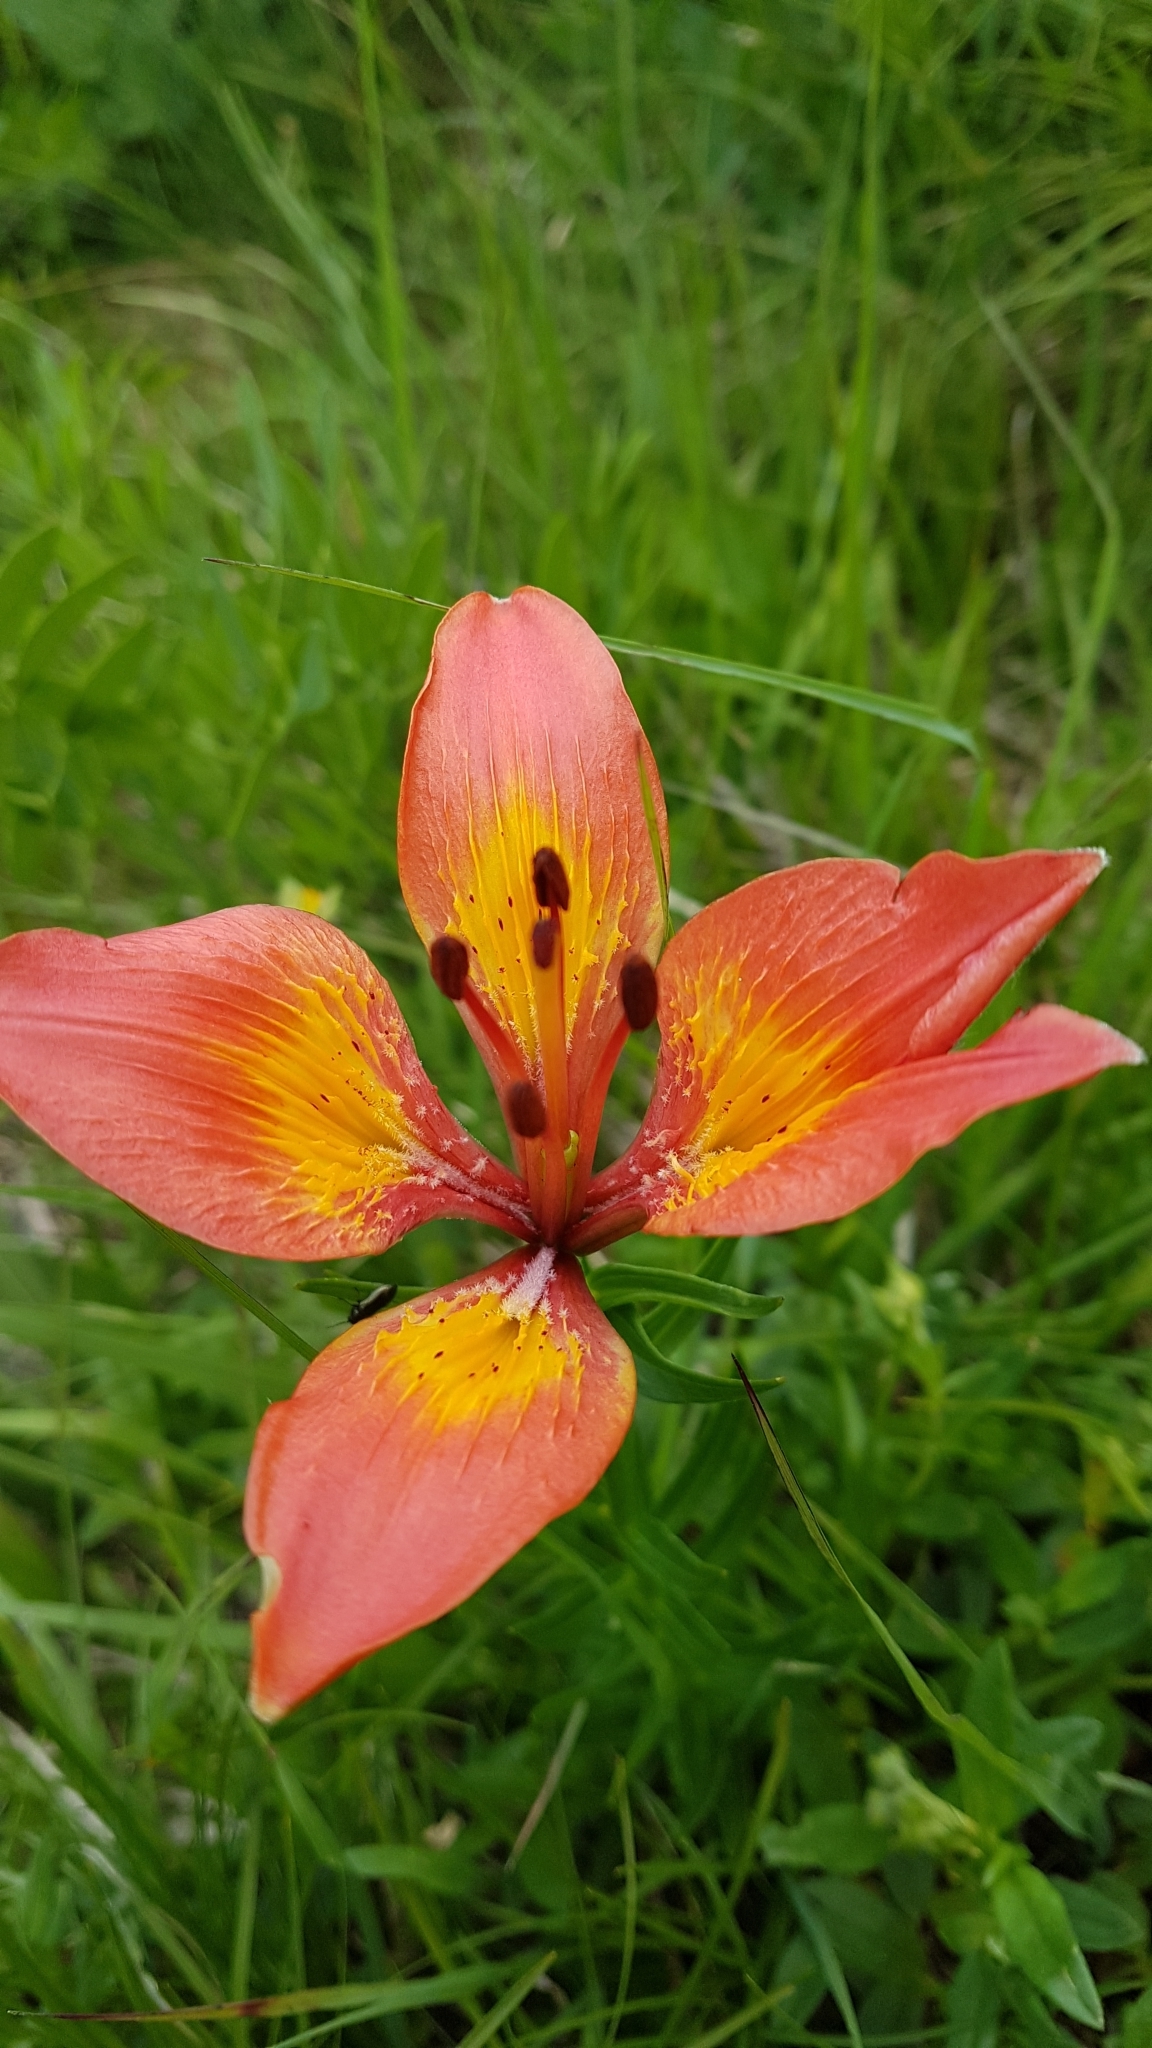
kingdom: Plantae
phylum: Tracheophyta
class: Liliopsida
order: Liliales
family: Liliaceae
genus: Lilium
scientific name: Lilium bulbiferum
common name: Orange lily
